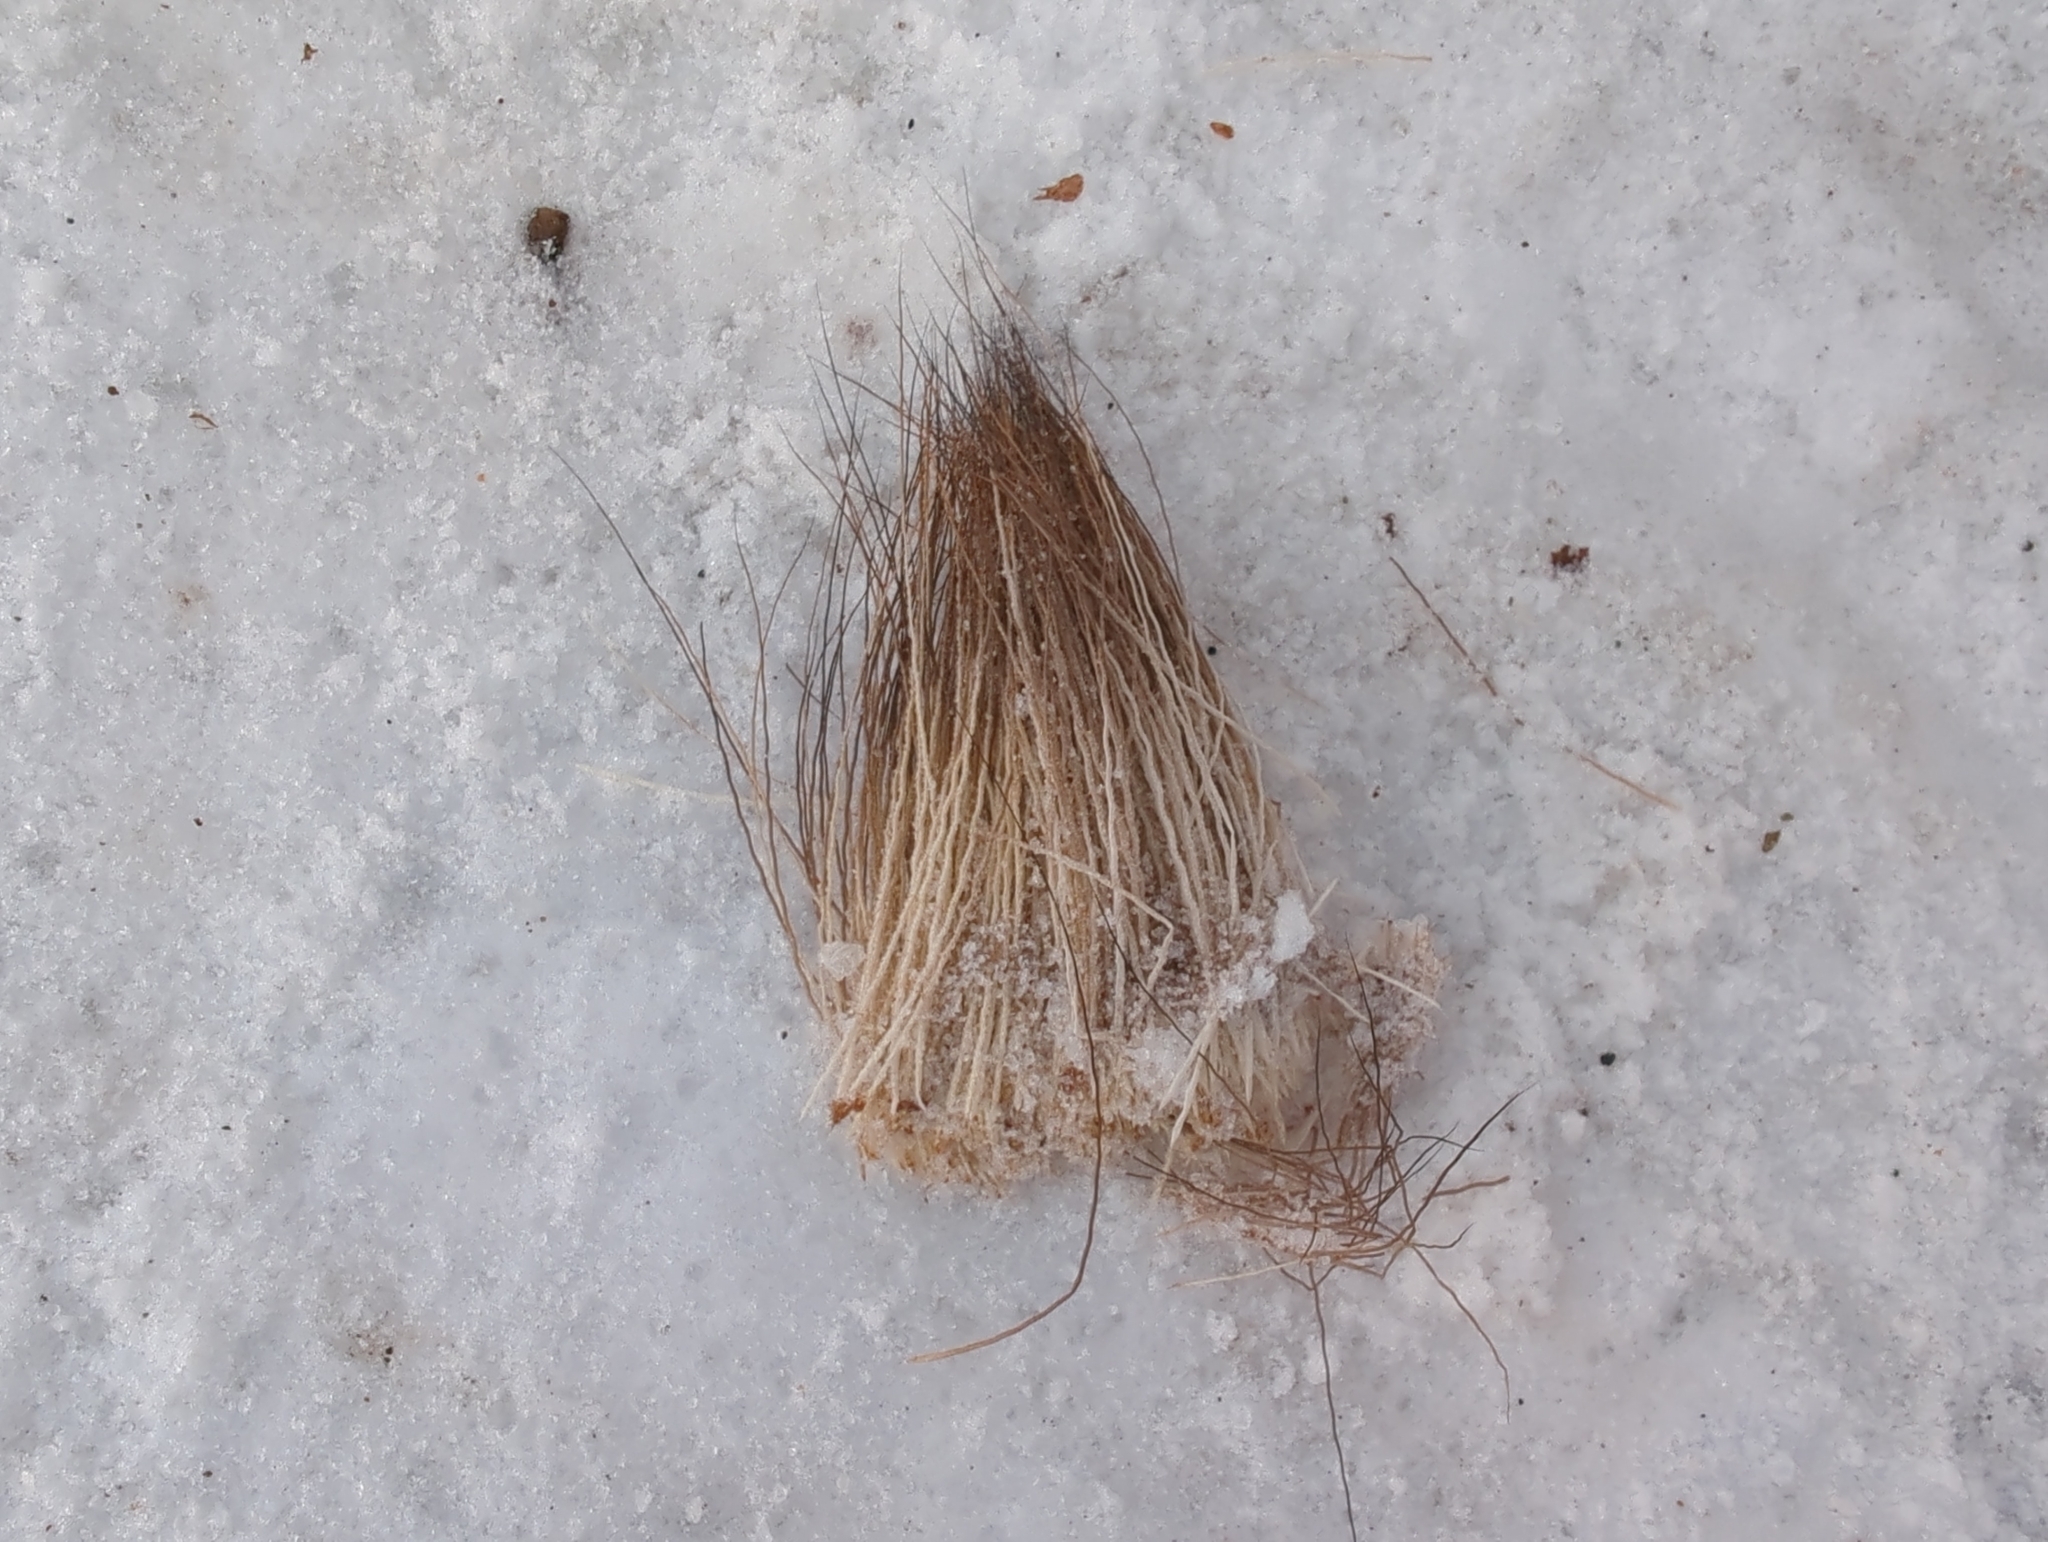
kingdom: Animalia
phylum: Chordata
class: Mammalia
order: Artiodactyla
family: Cervidae
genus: Alces
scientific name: Alces alces
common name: Moose
